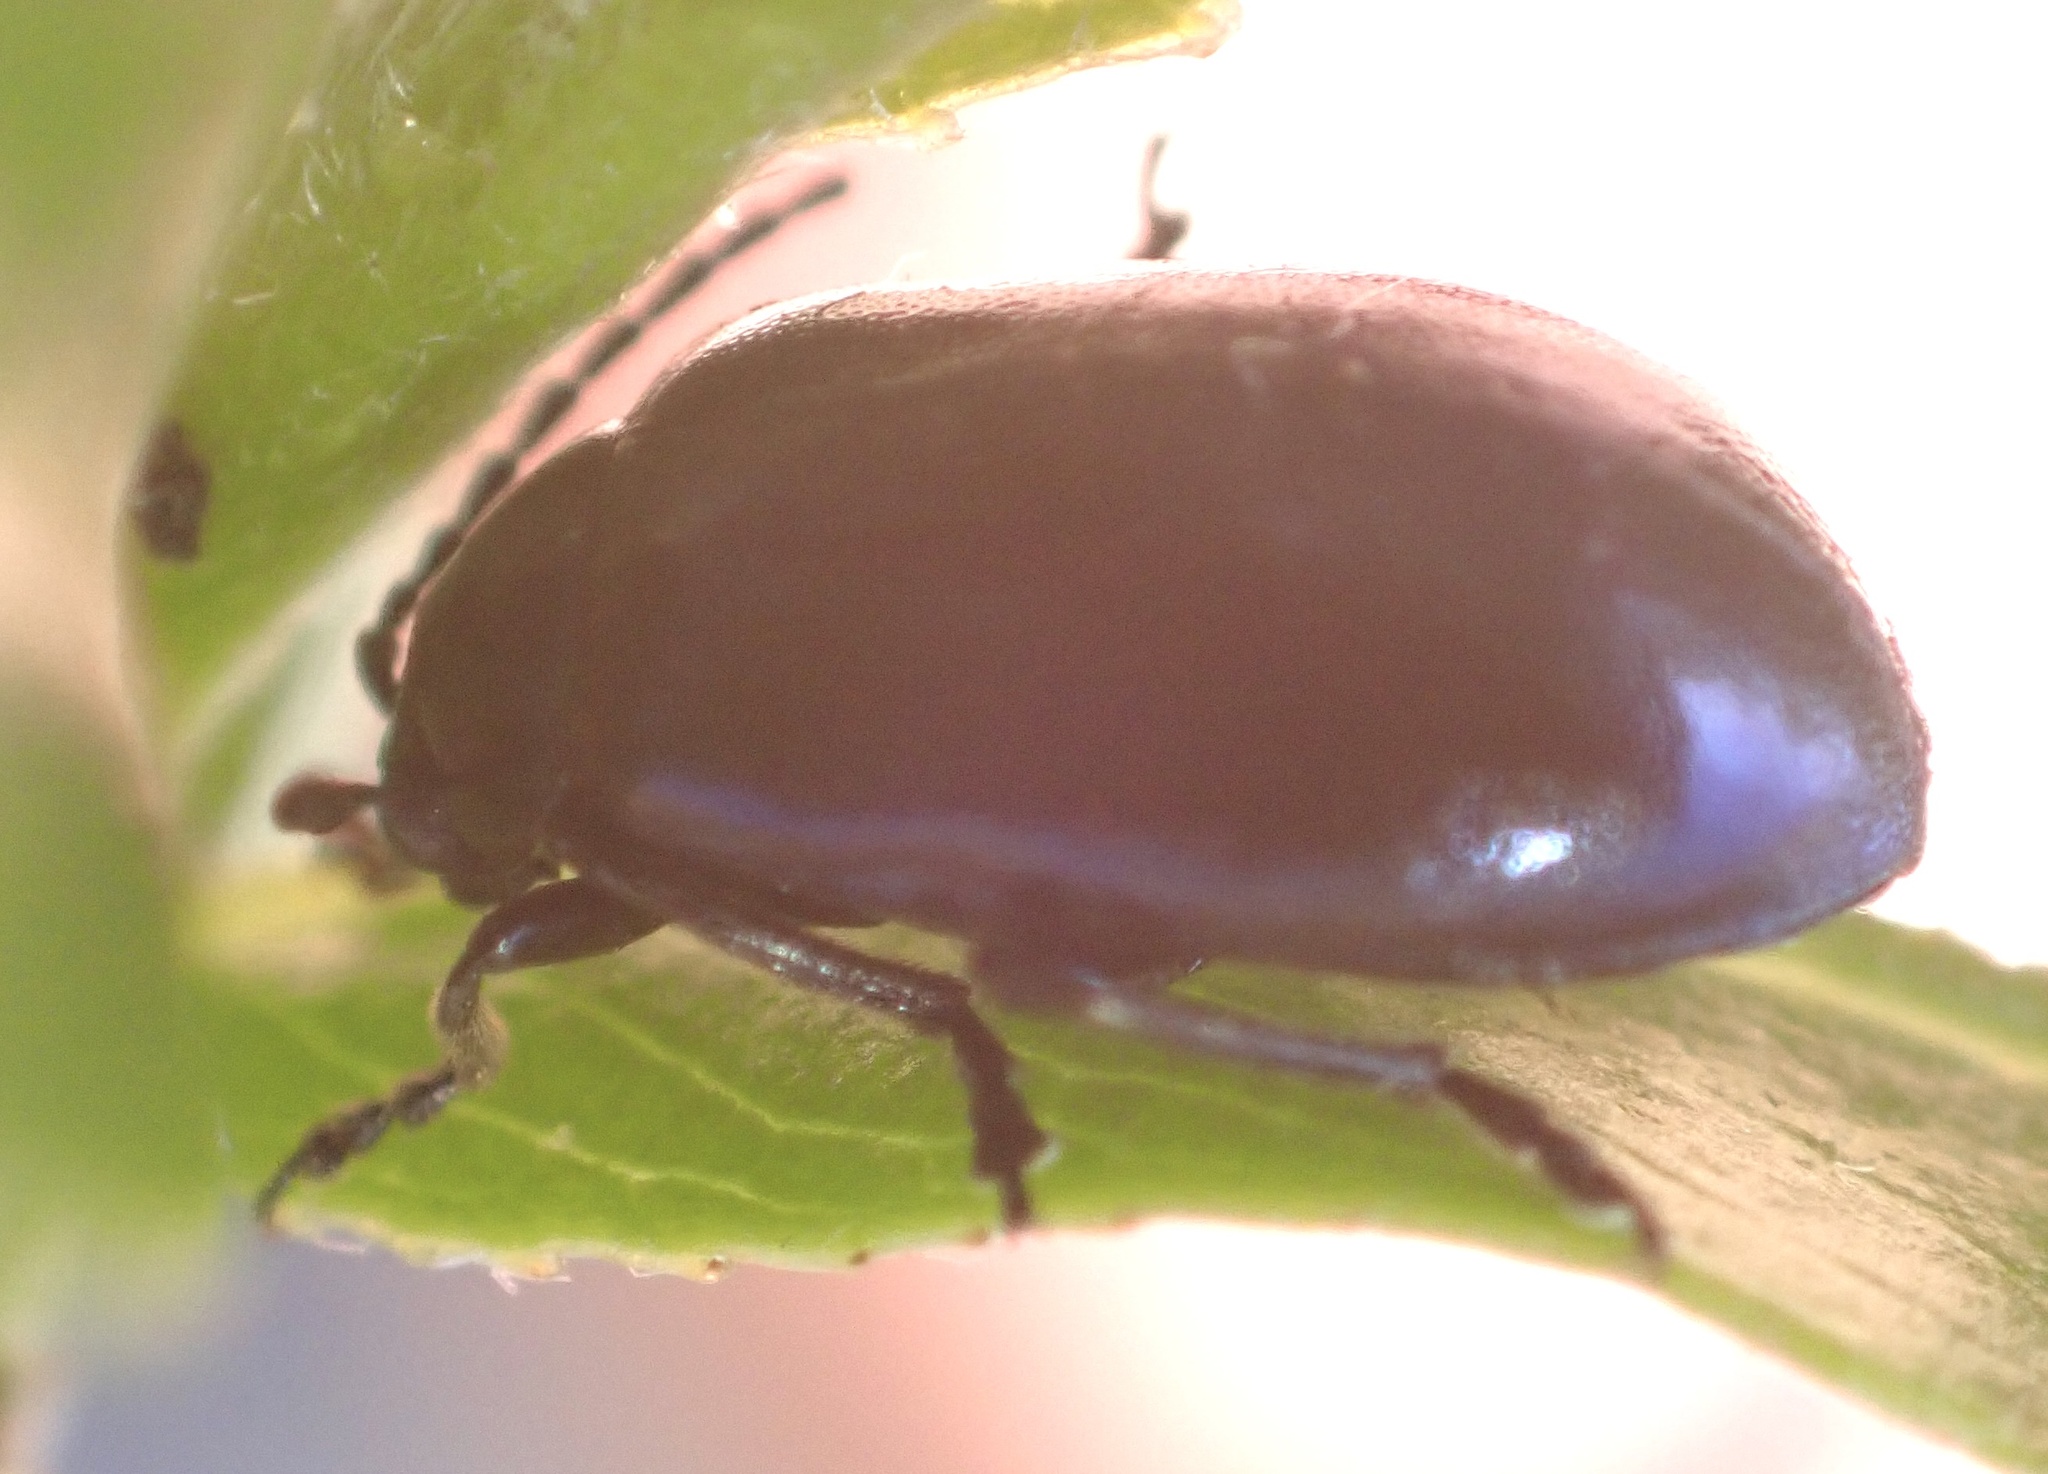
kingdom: Animalia
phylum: Arthropoda
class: Insecta
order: Coleoptera
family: Chrysomelidae
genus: Agelastica
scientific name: Agelastica alni
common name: Alder leaf beetle
